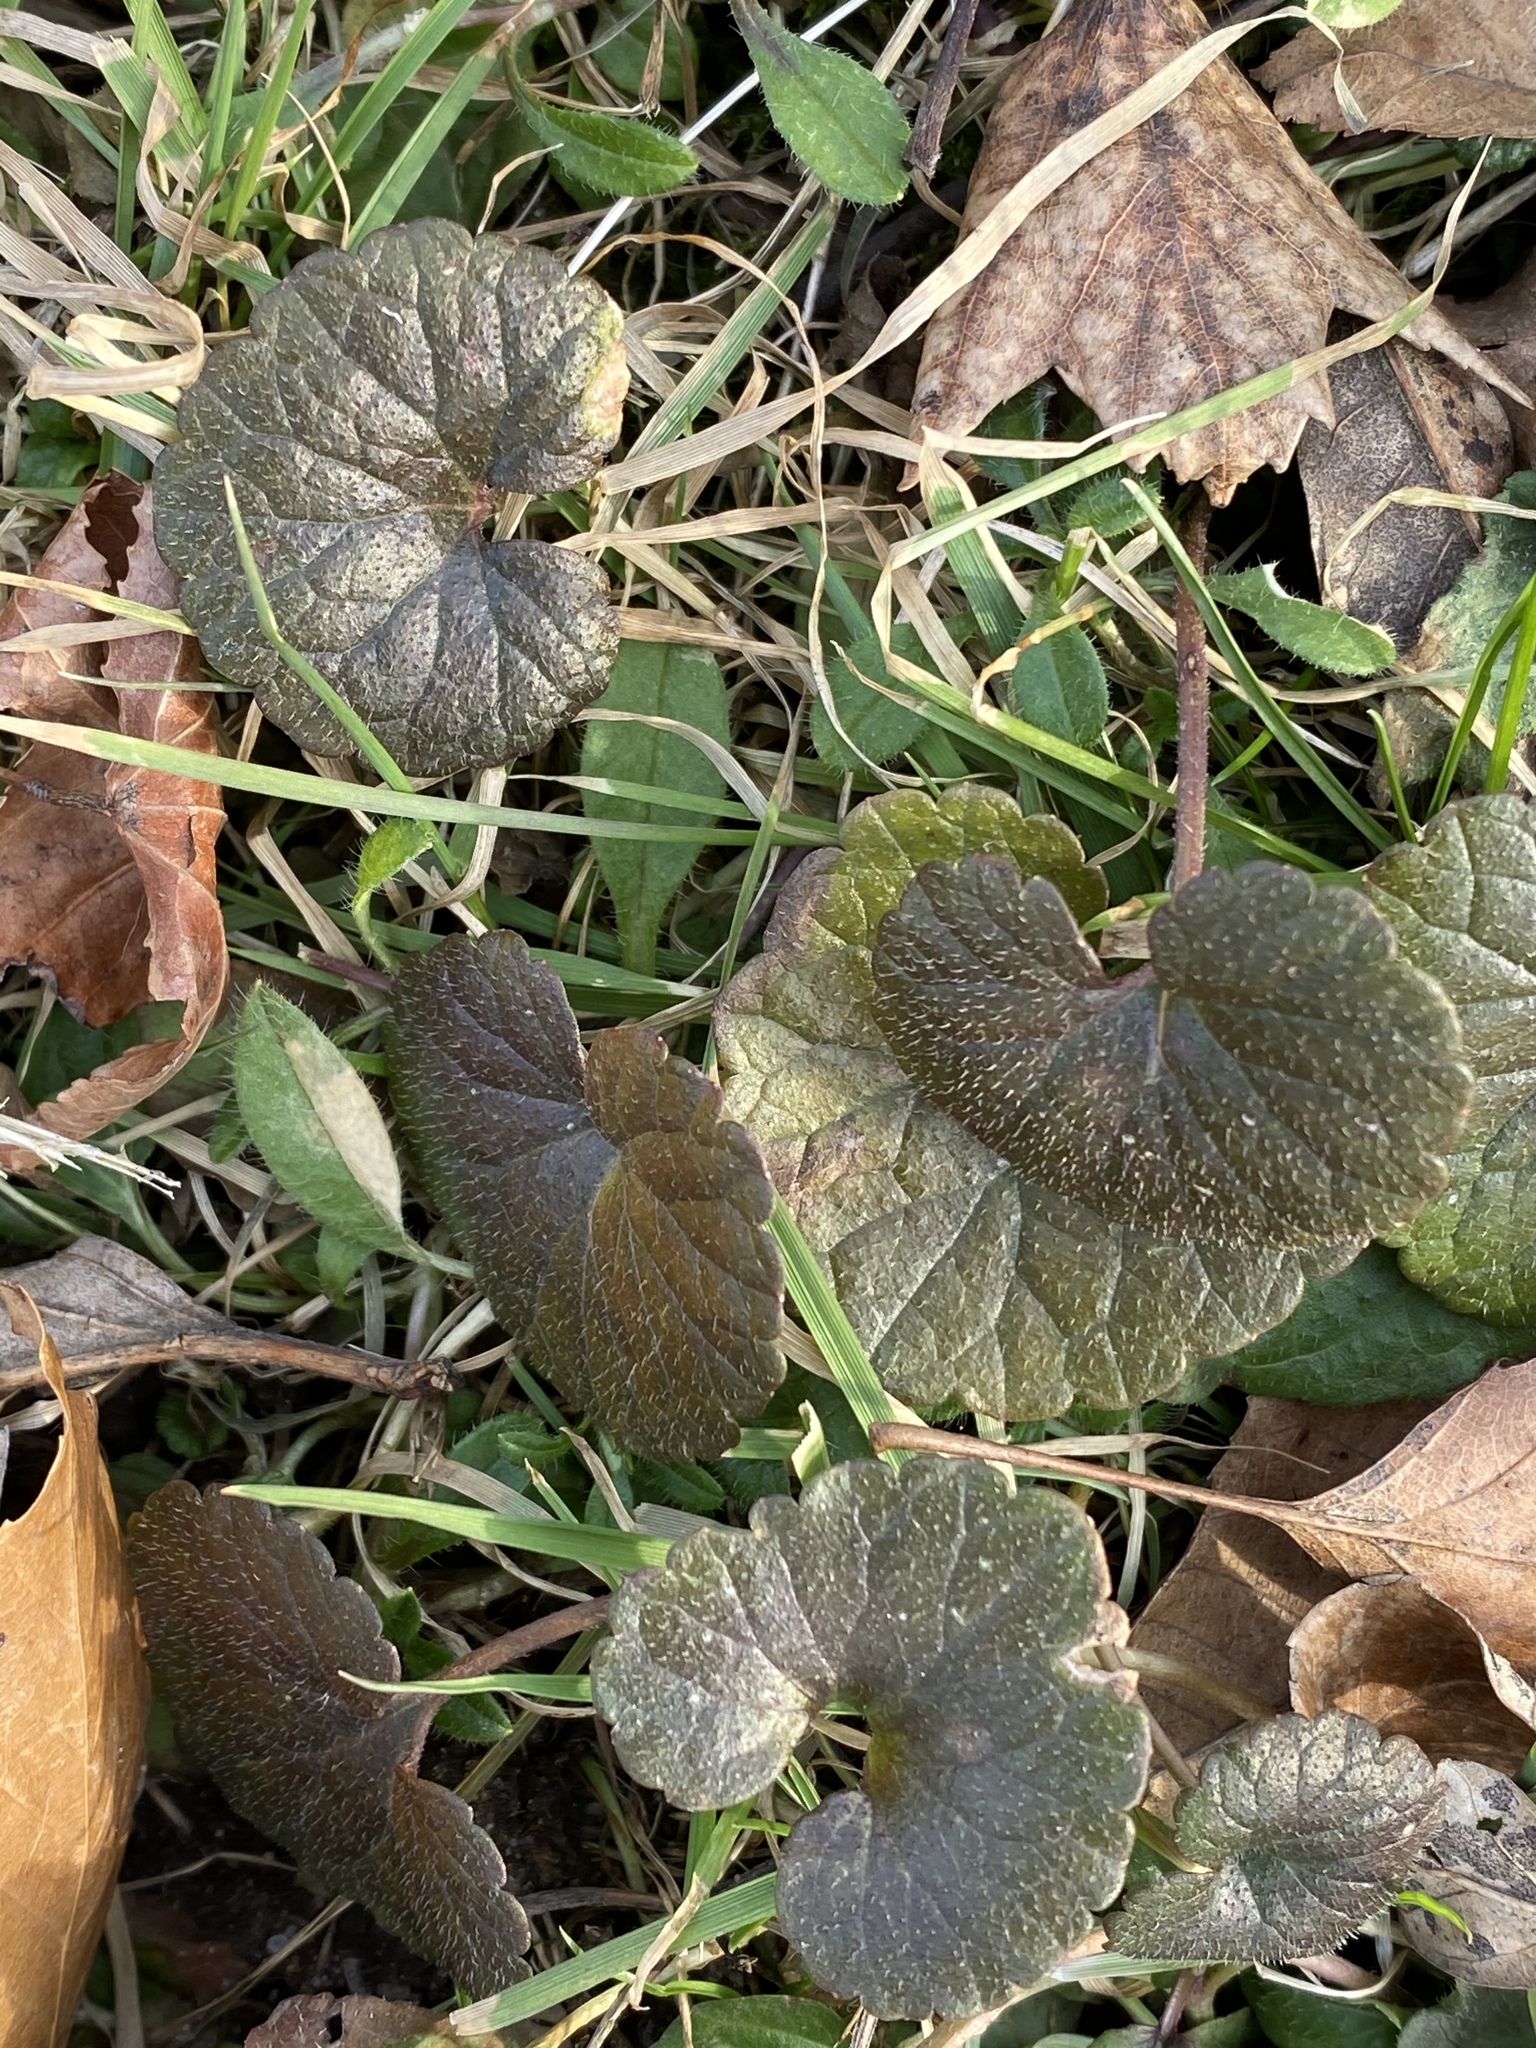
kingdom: Plantae
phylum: Tracheophyta
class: Magnoliopsida
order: Lamiales
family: Lamiaceae
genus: Glechoma
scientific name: Glechoma hederacea
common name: Ground ivy
